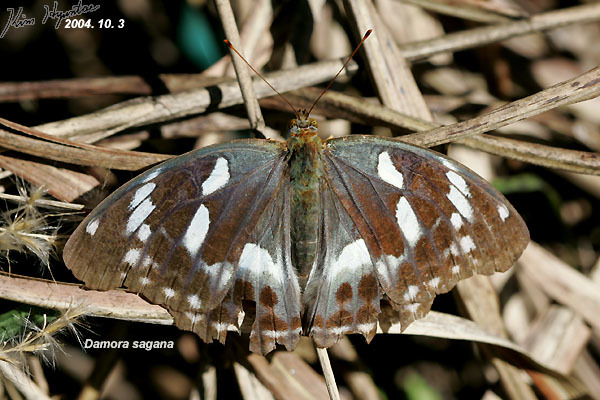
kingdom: Animalia
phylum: Arthropoda
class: Insecta
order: Lepidoptera
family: Nymphalidae
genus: Damora
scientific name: Damora sagana
